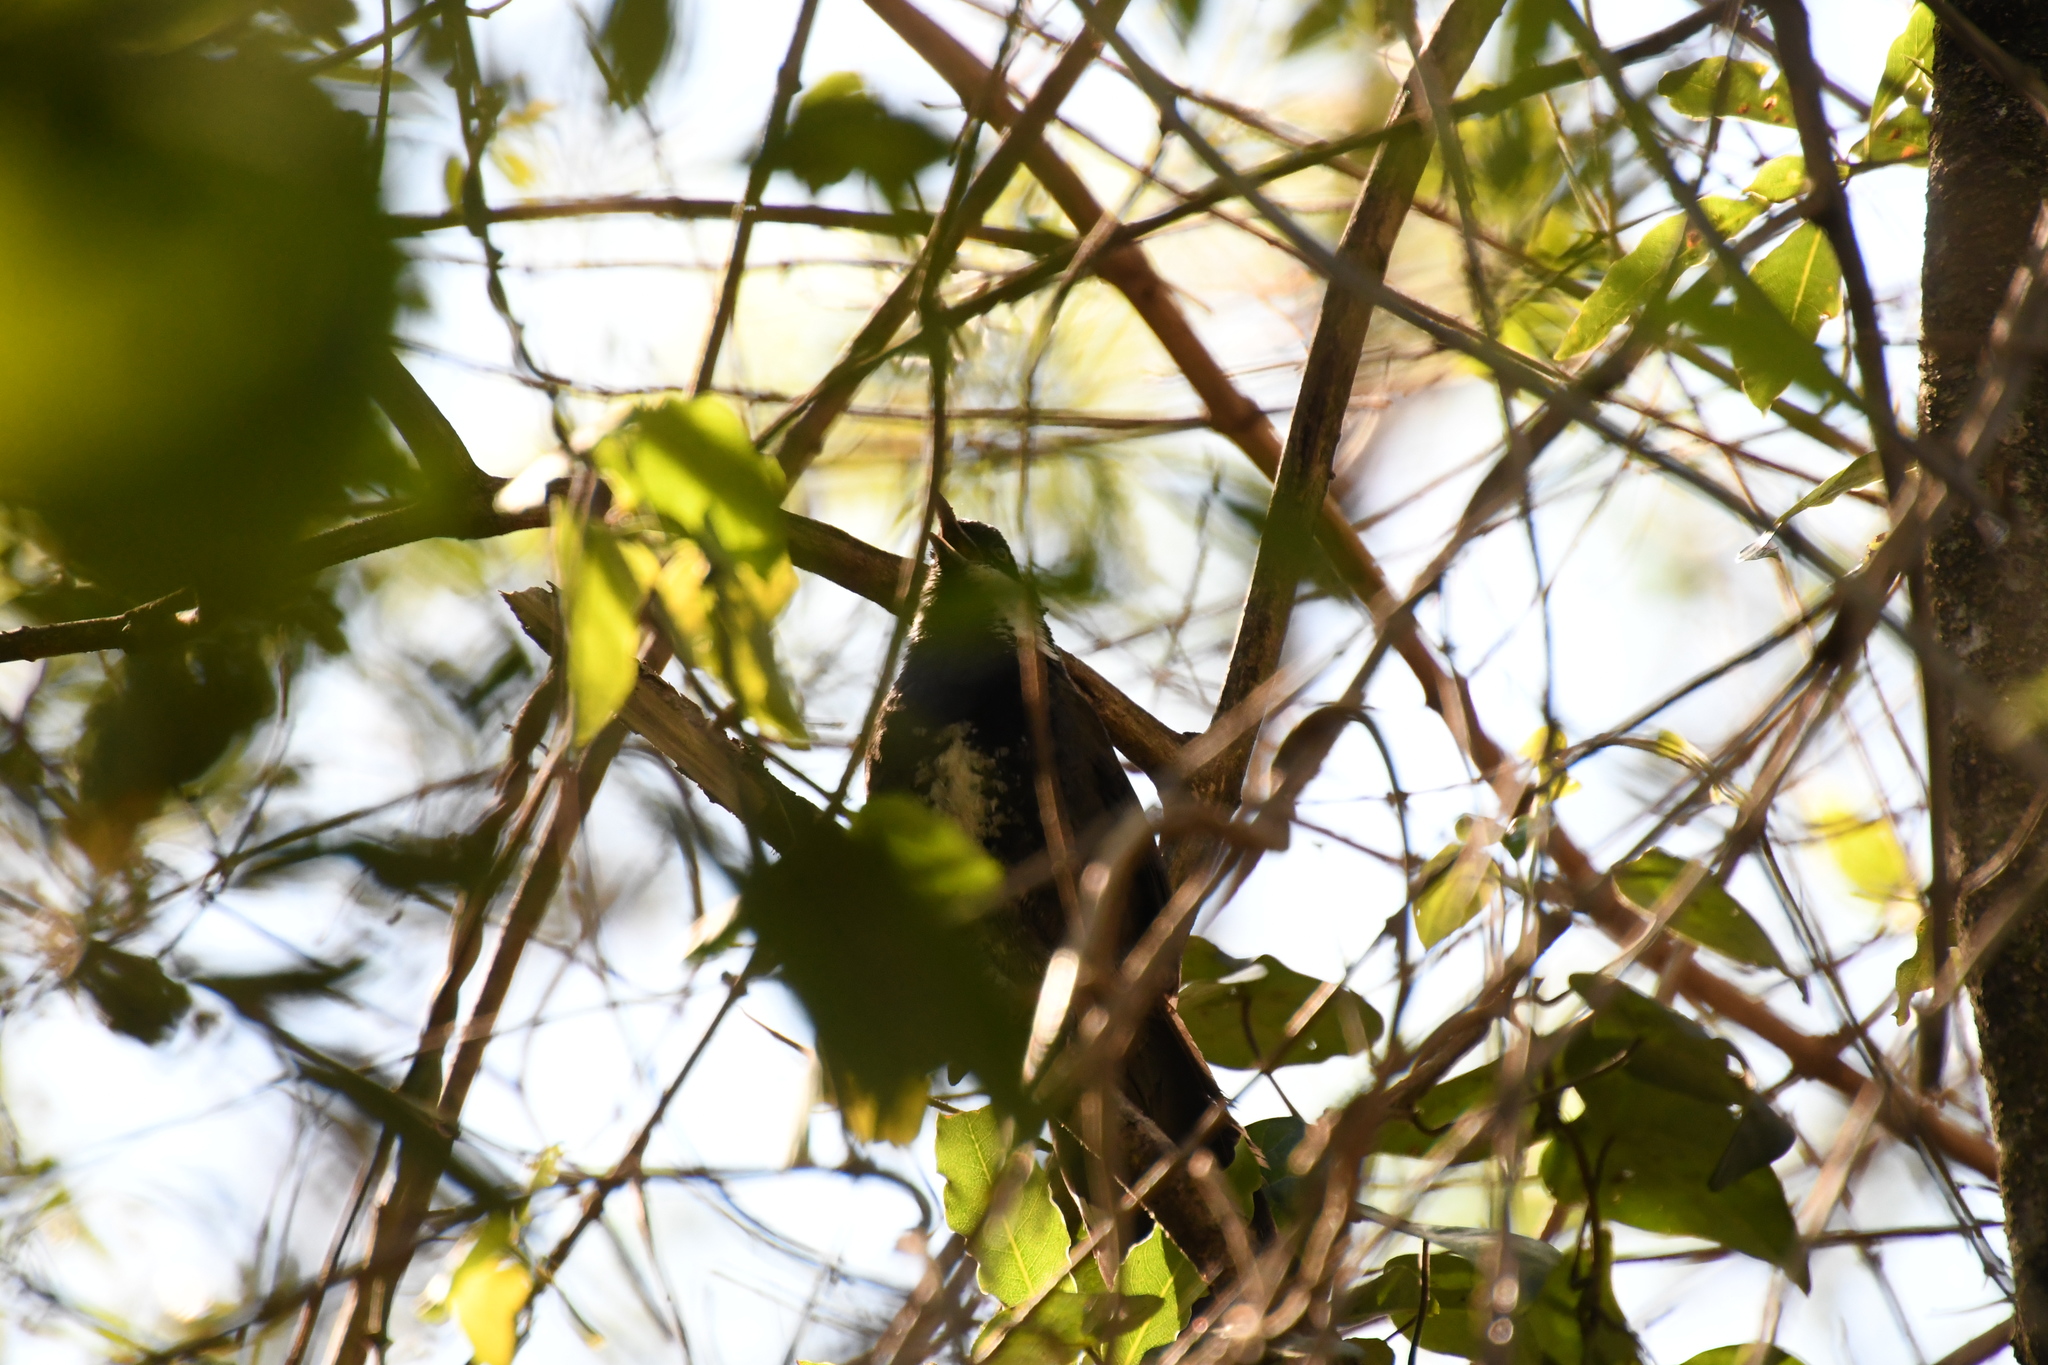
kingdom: Animalia
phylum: Chordata
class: Aves
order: Passeriformes
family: Psophodidae
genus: Psophodes
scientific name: Psophodes olivaceus
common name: Eastern whipbird
